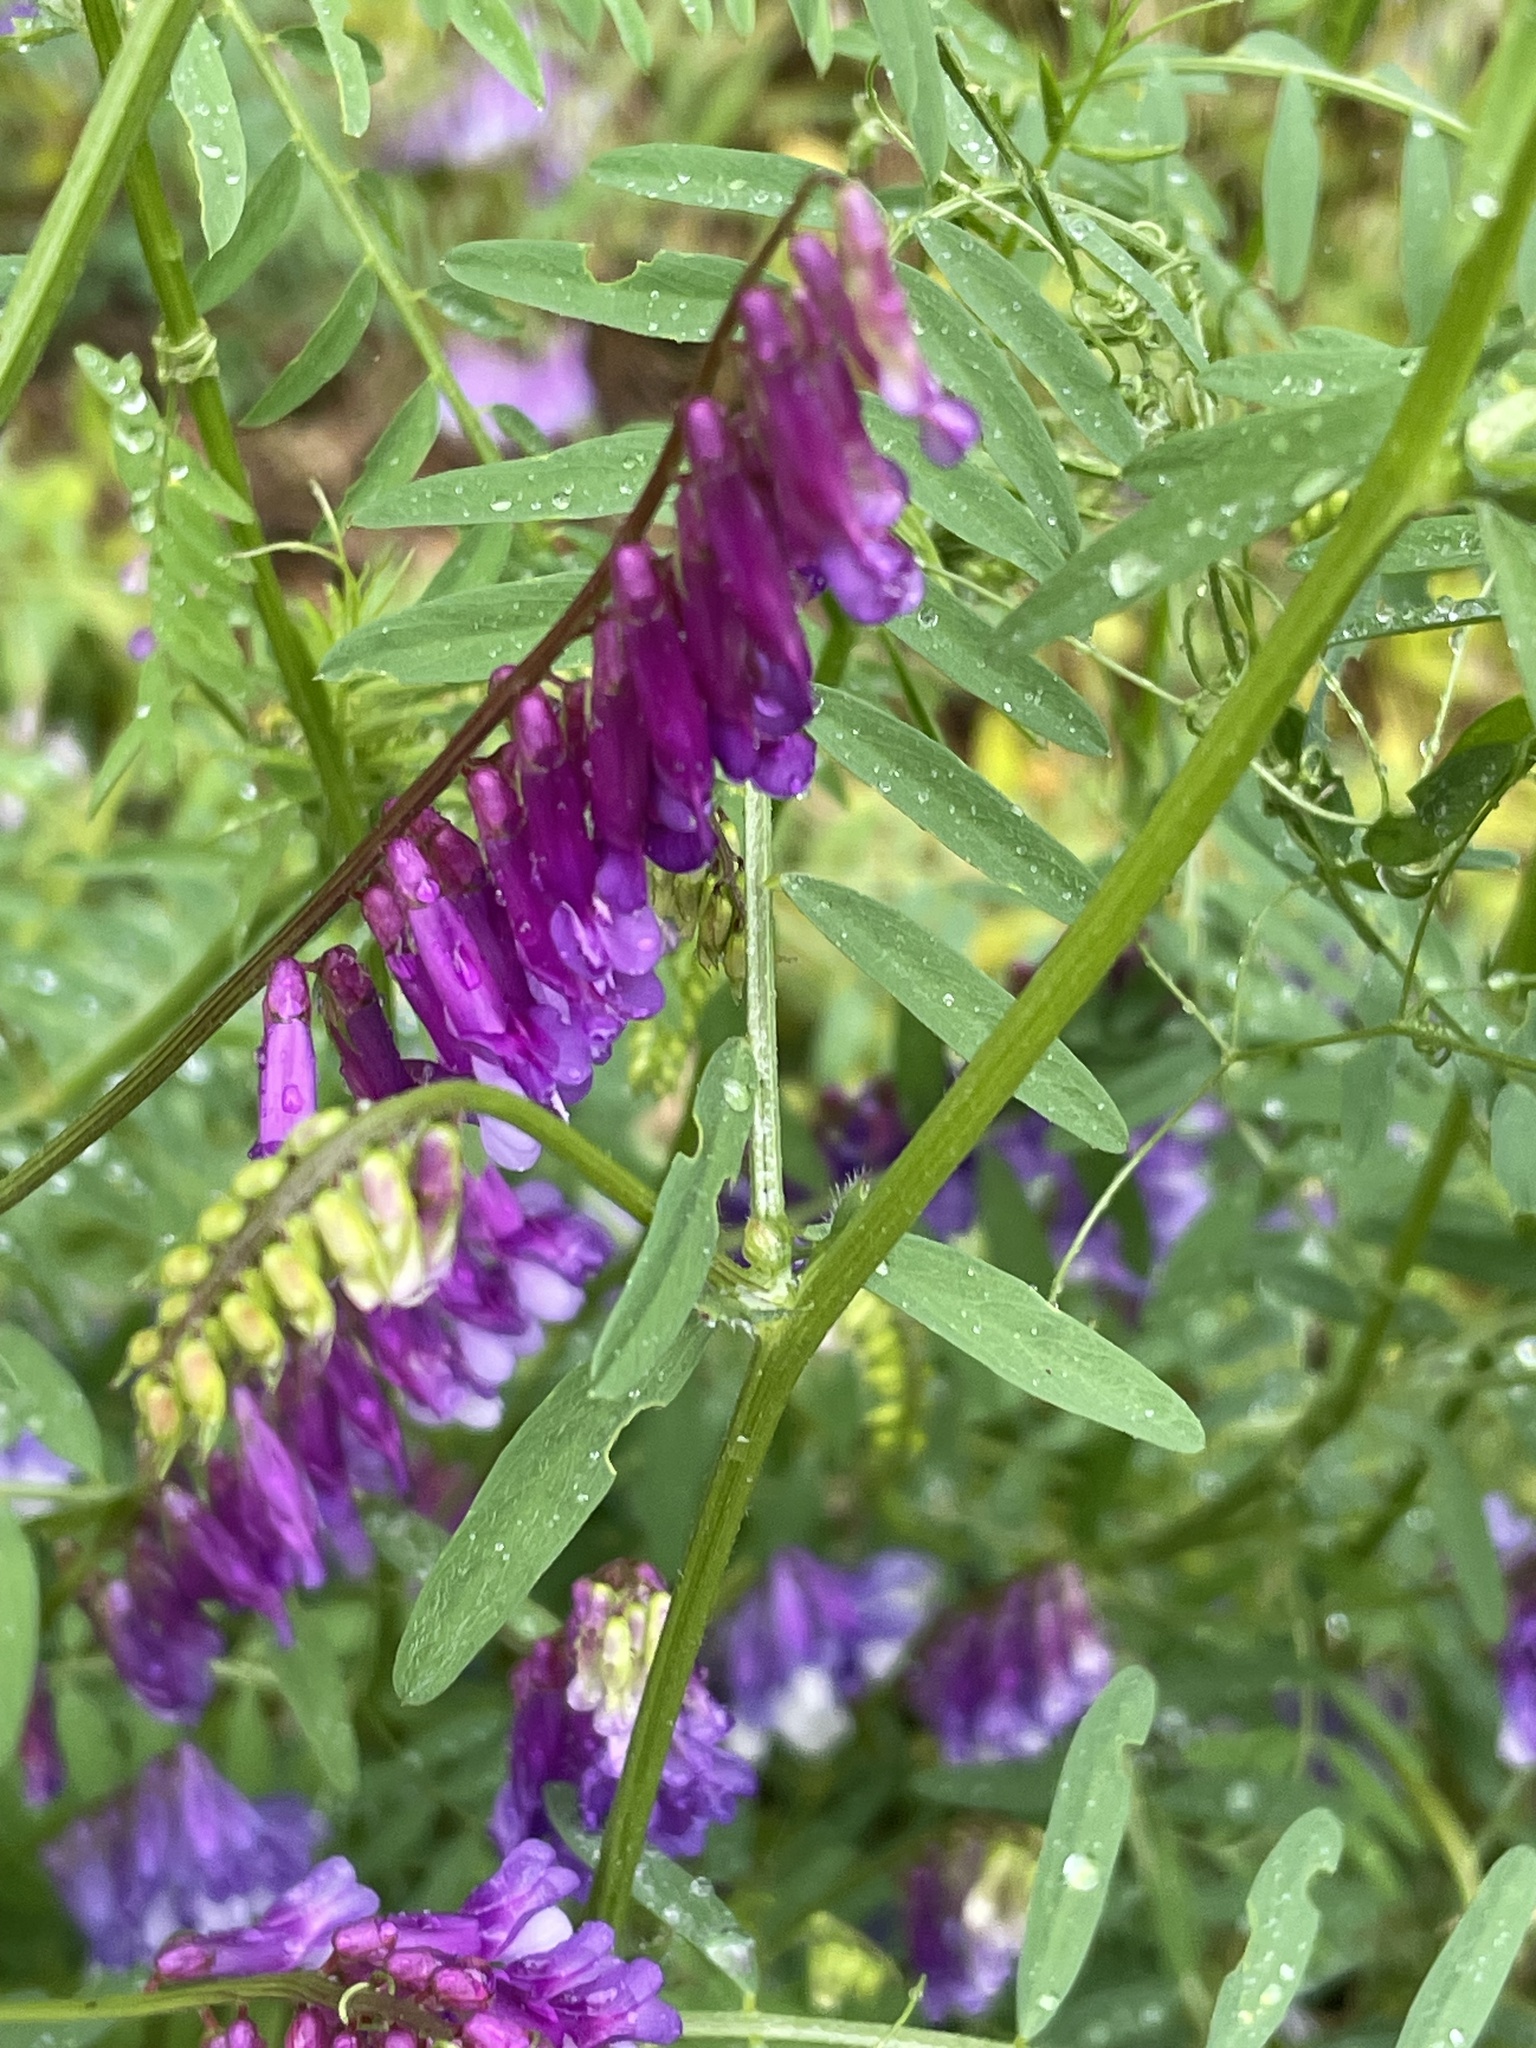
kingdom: Plantae
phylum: Tracheophyta
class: Magnoliopsida
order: Fabales
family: Fabaceae
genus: Vicia
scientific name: Vicia villosa
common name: Fodder vetch
